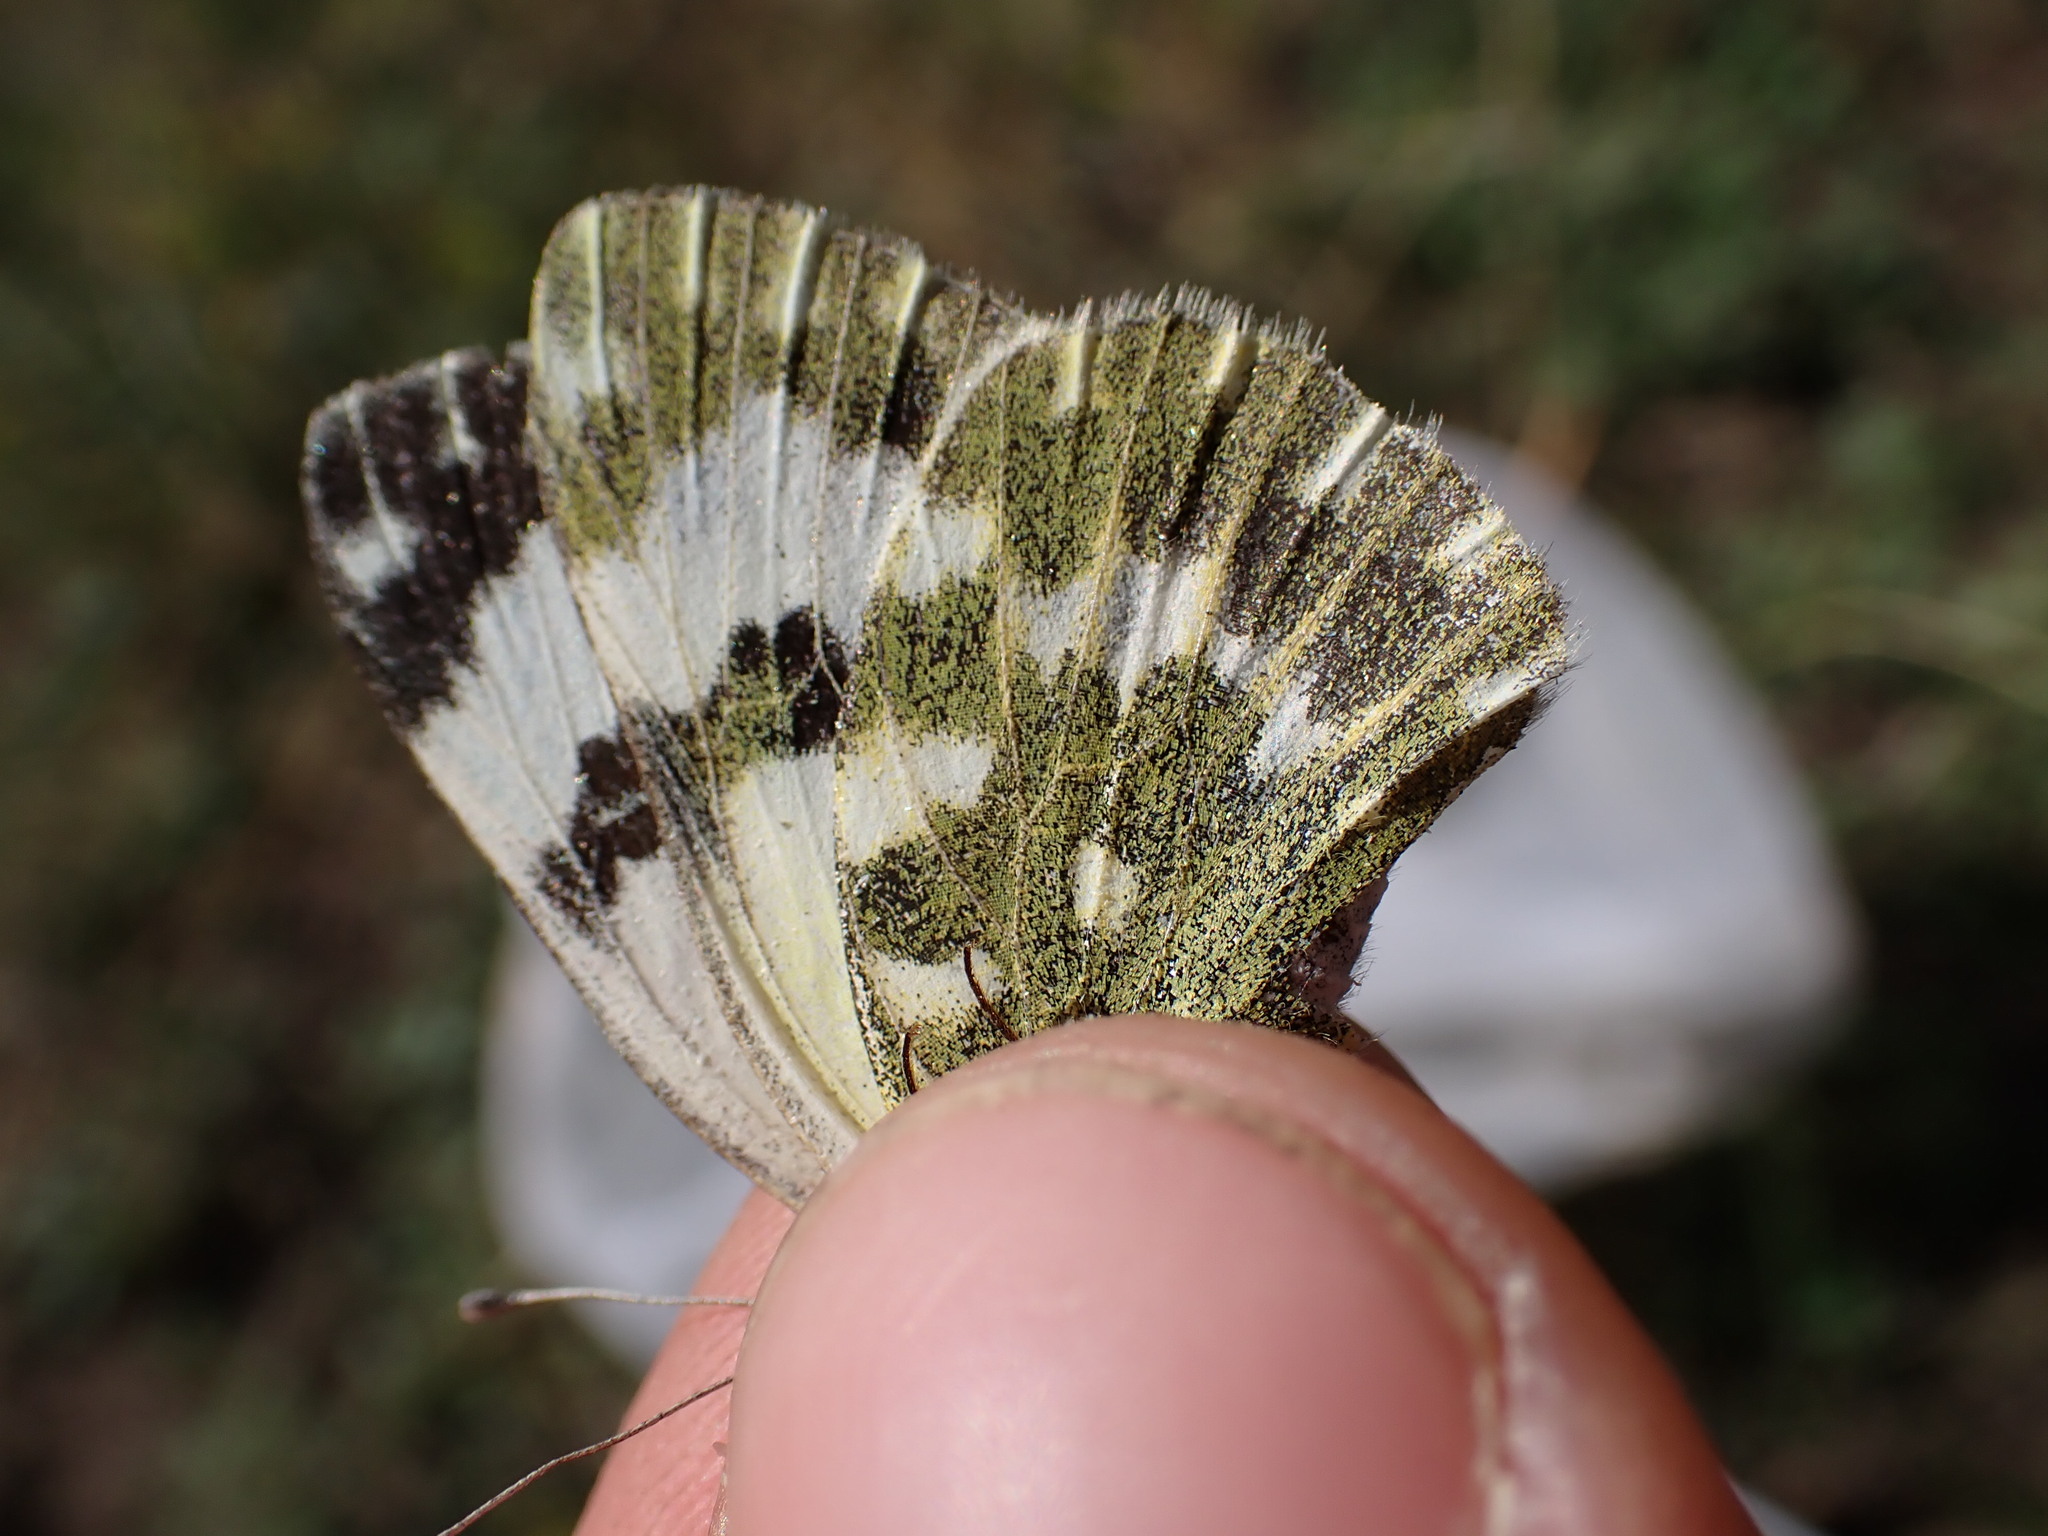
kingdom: Animalia
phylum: Arthropoda
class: Insecta
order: Lepidoptera
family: Pieridae
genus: Pontia
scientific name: Pontia daplidice
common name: Bath white
